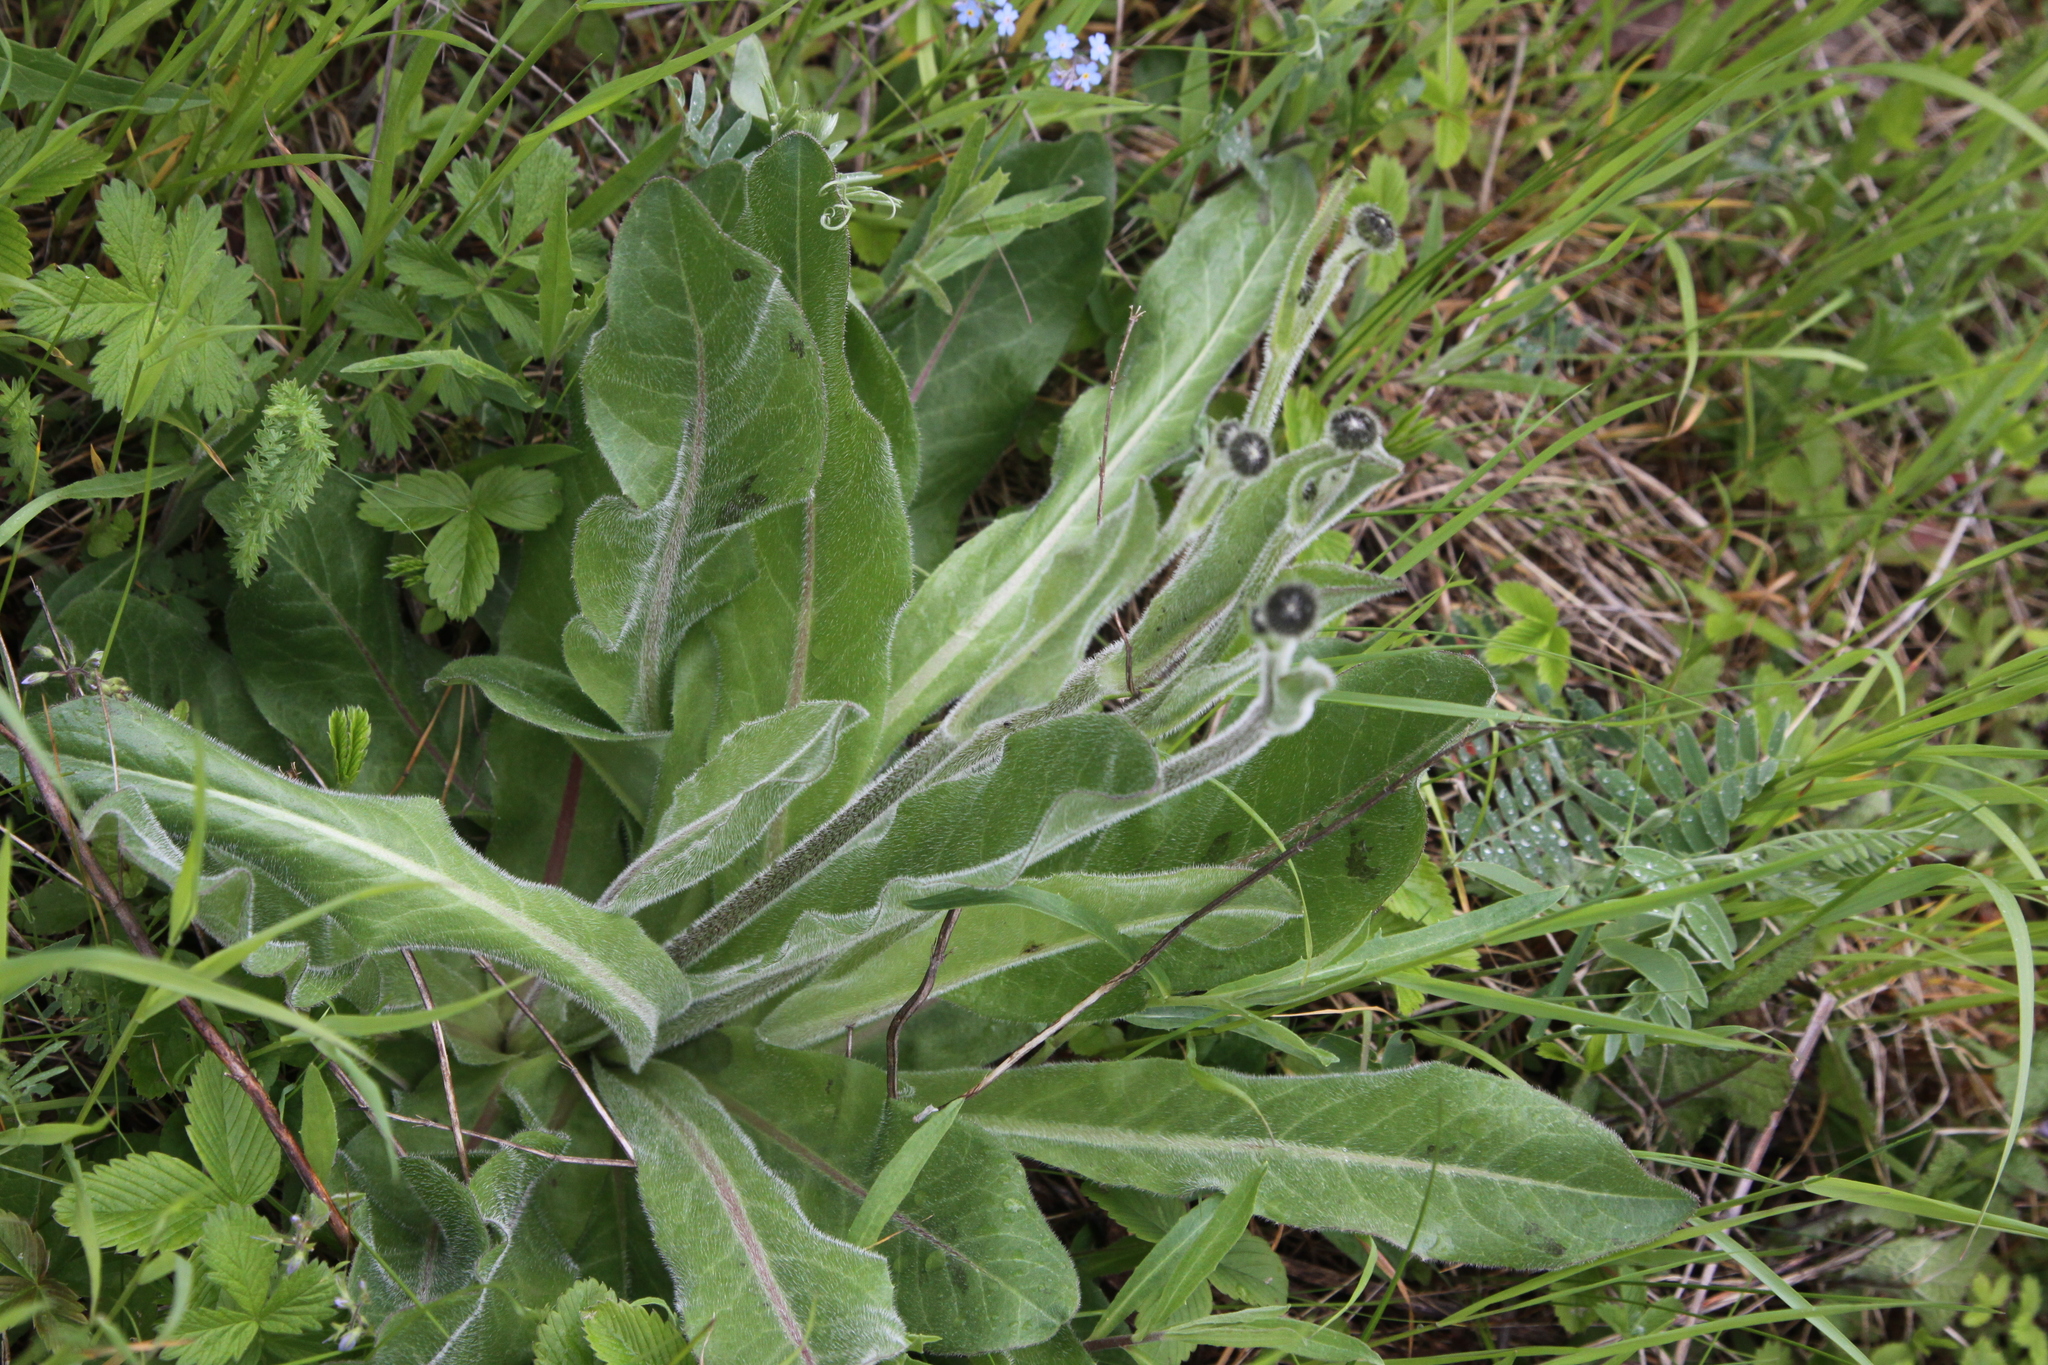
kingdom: Plantae
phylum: Tracheophyta
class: Magnoliopsida
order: Asterales
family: Asteraceae
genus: Trommsdorffia
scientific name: Trommsdorffia maculata
